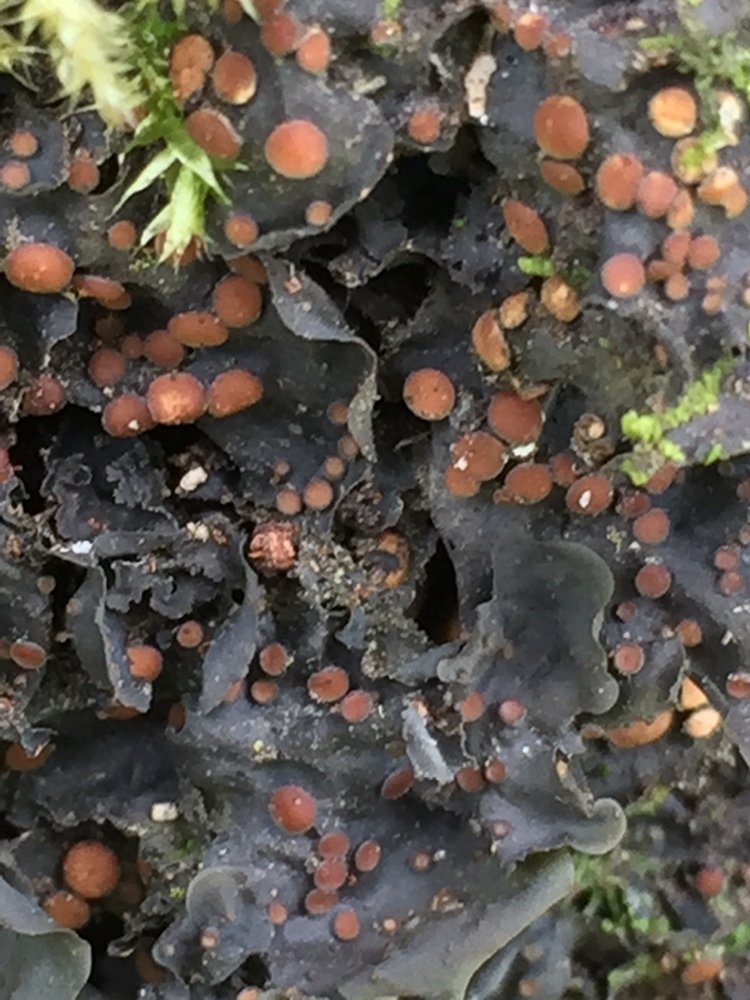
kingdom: Fungi
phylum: Ascomycota
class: Lecanoromycetes
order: Peltigerales
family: Collemataceae
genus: Collema
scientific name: Collema subconveniens
